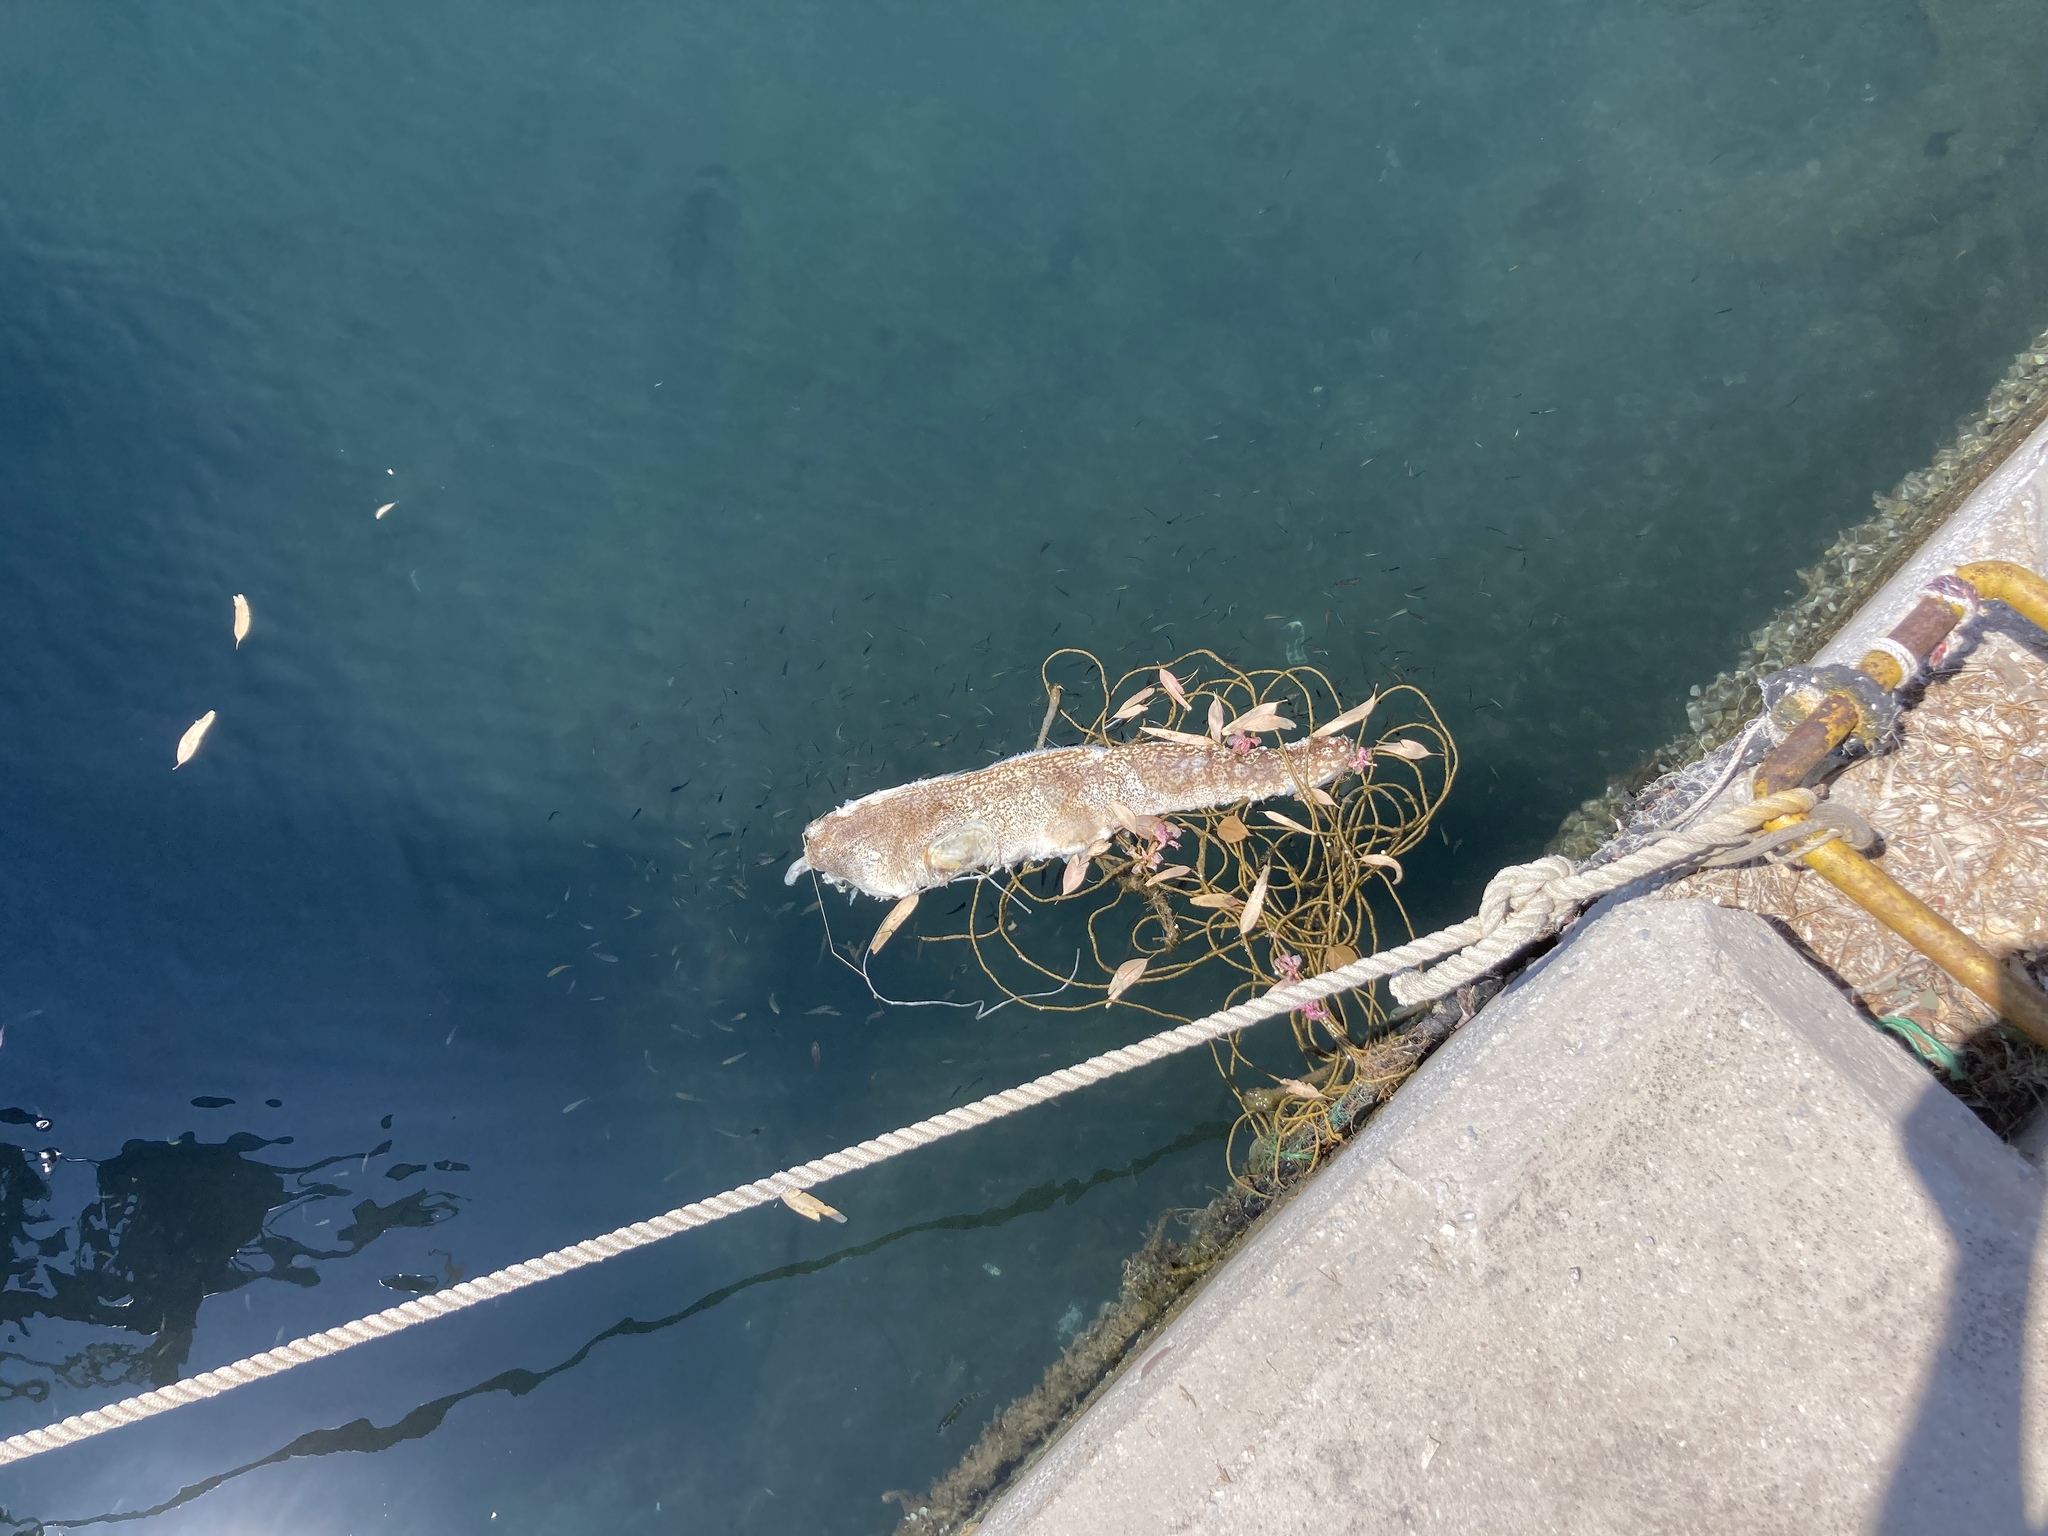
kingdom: Animalia
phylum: Chordata
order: Anguilliformes
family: Muraenidae
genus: Muraena
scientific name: Muraena helena
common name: Mediterranean moray
